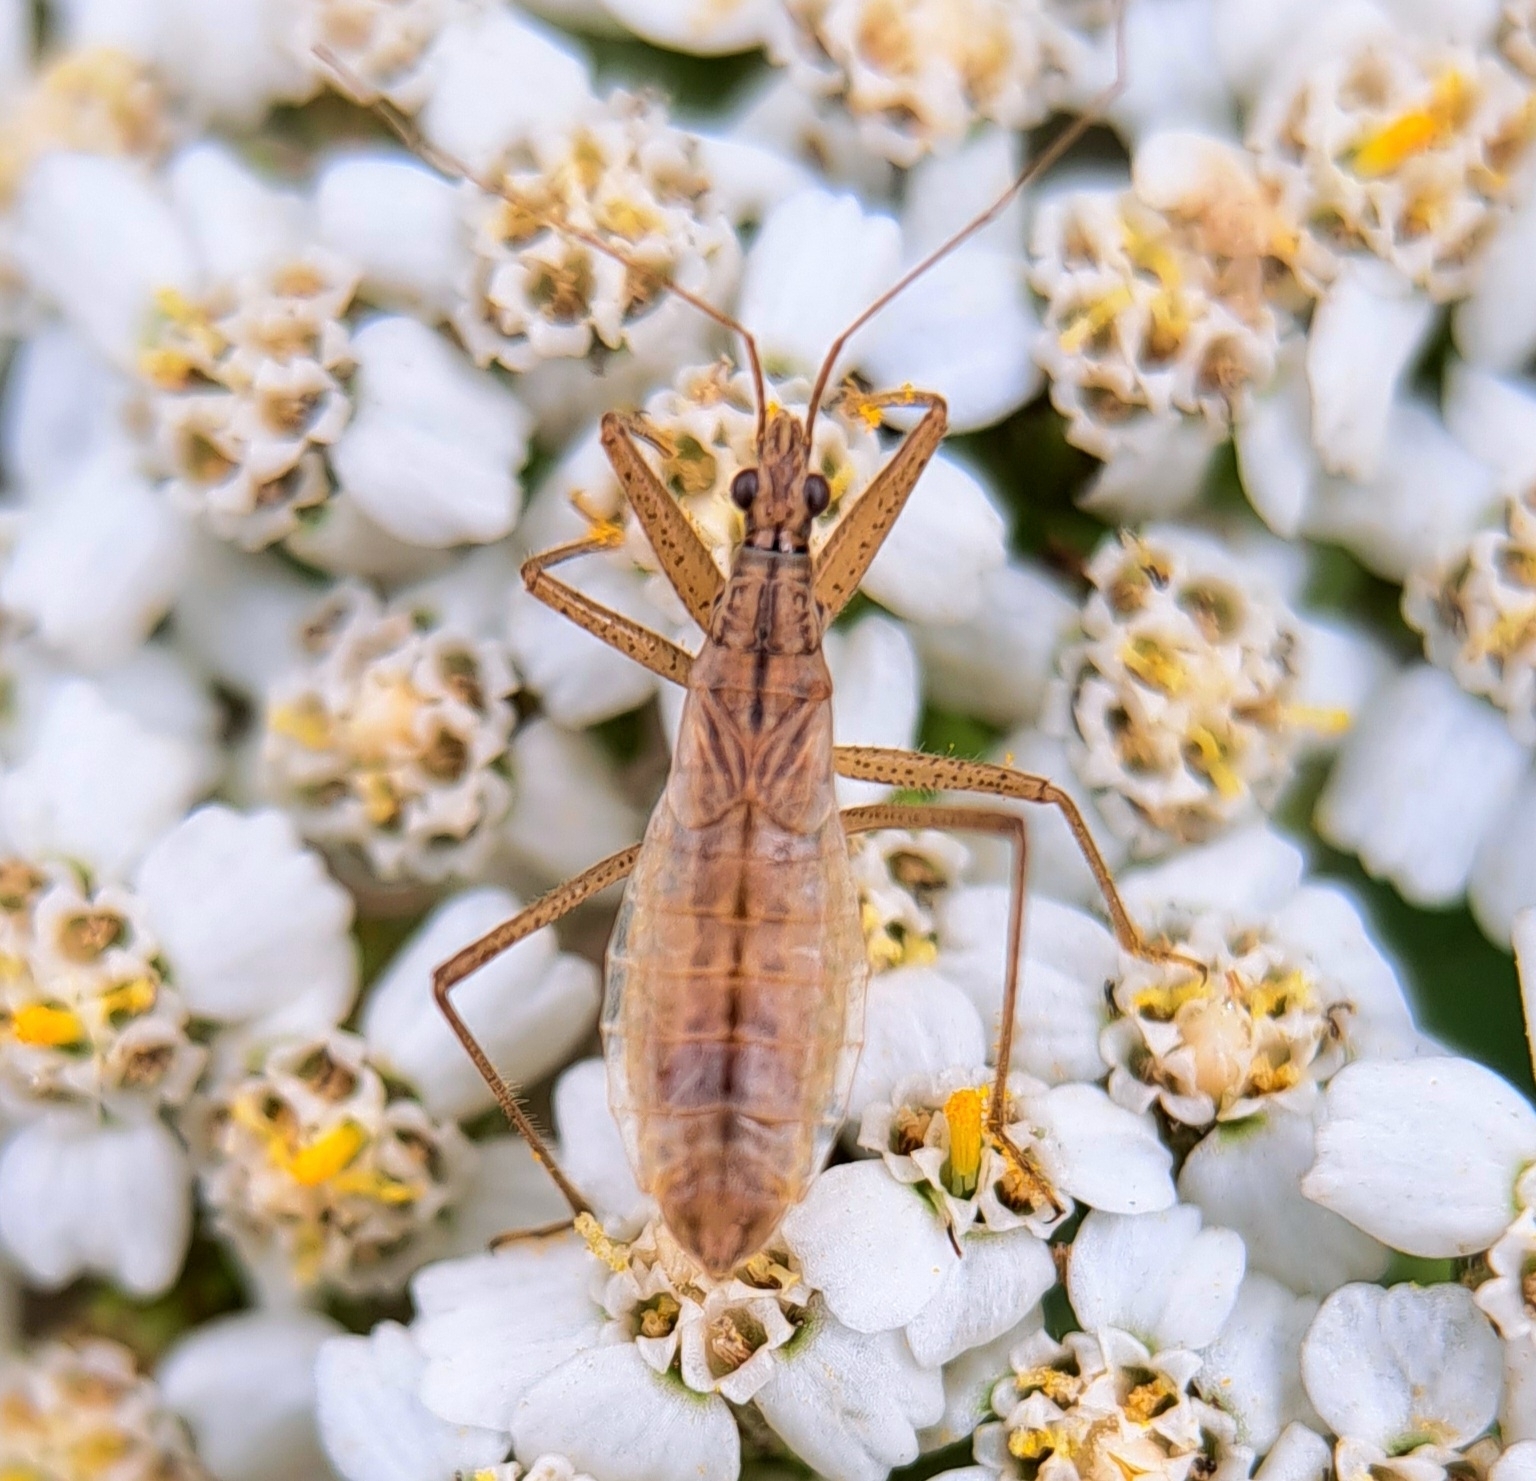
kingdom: Animalia
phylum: Arthropoda
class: Insecta
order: Hemiptera
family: Nabidae
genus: Nabis
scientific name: Nabis limbatus
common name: Marsh damselbug
